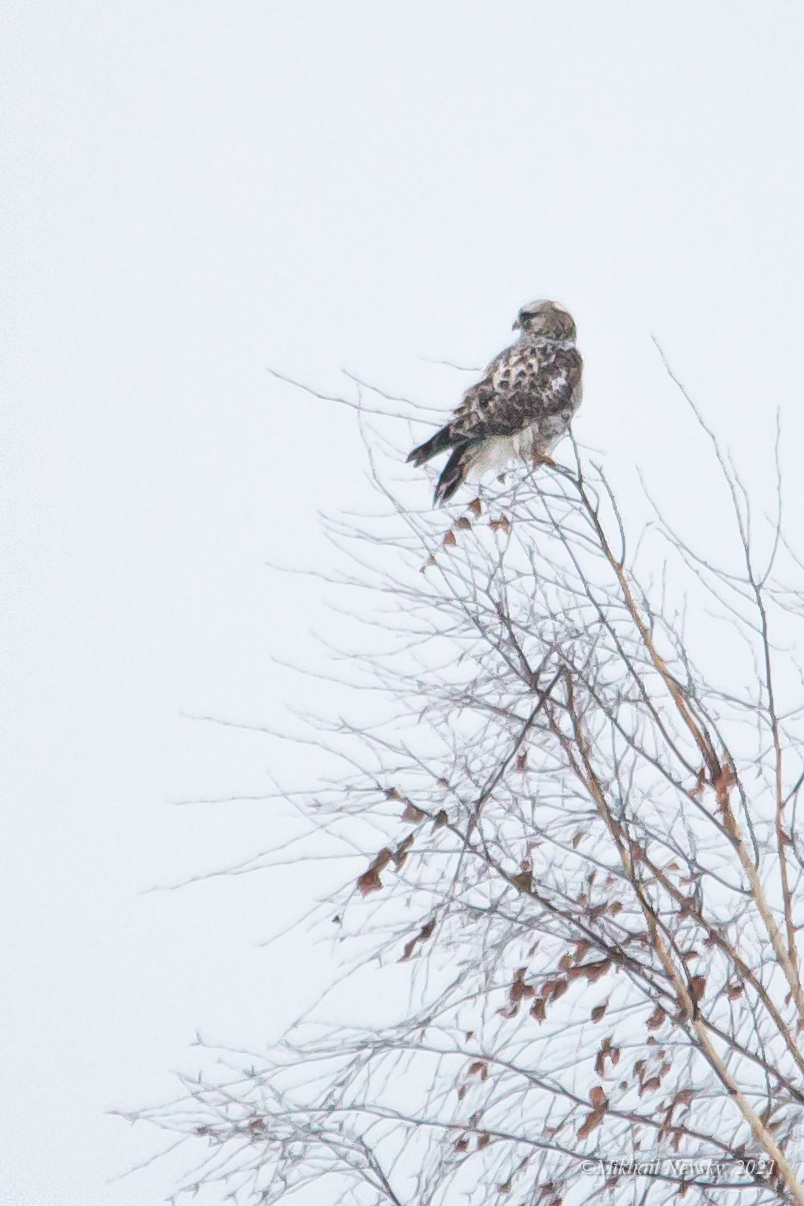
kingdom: Animalia
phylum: Chordata
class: Aves
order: Accipitriformes
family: Accipitridae
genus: Buteo
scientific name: Buteo lagopus
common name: Rough-legged buzzard
